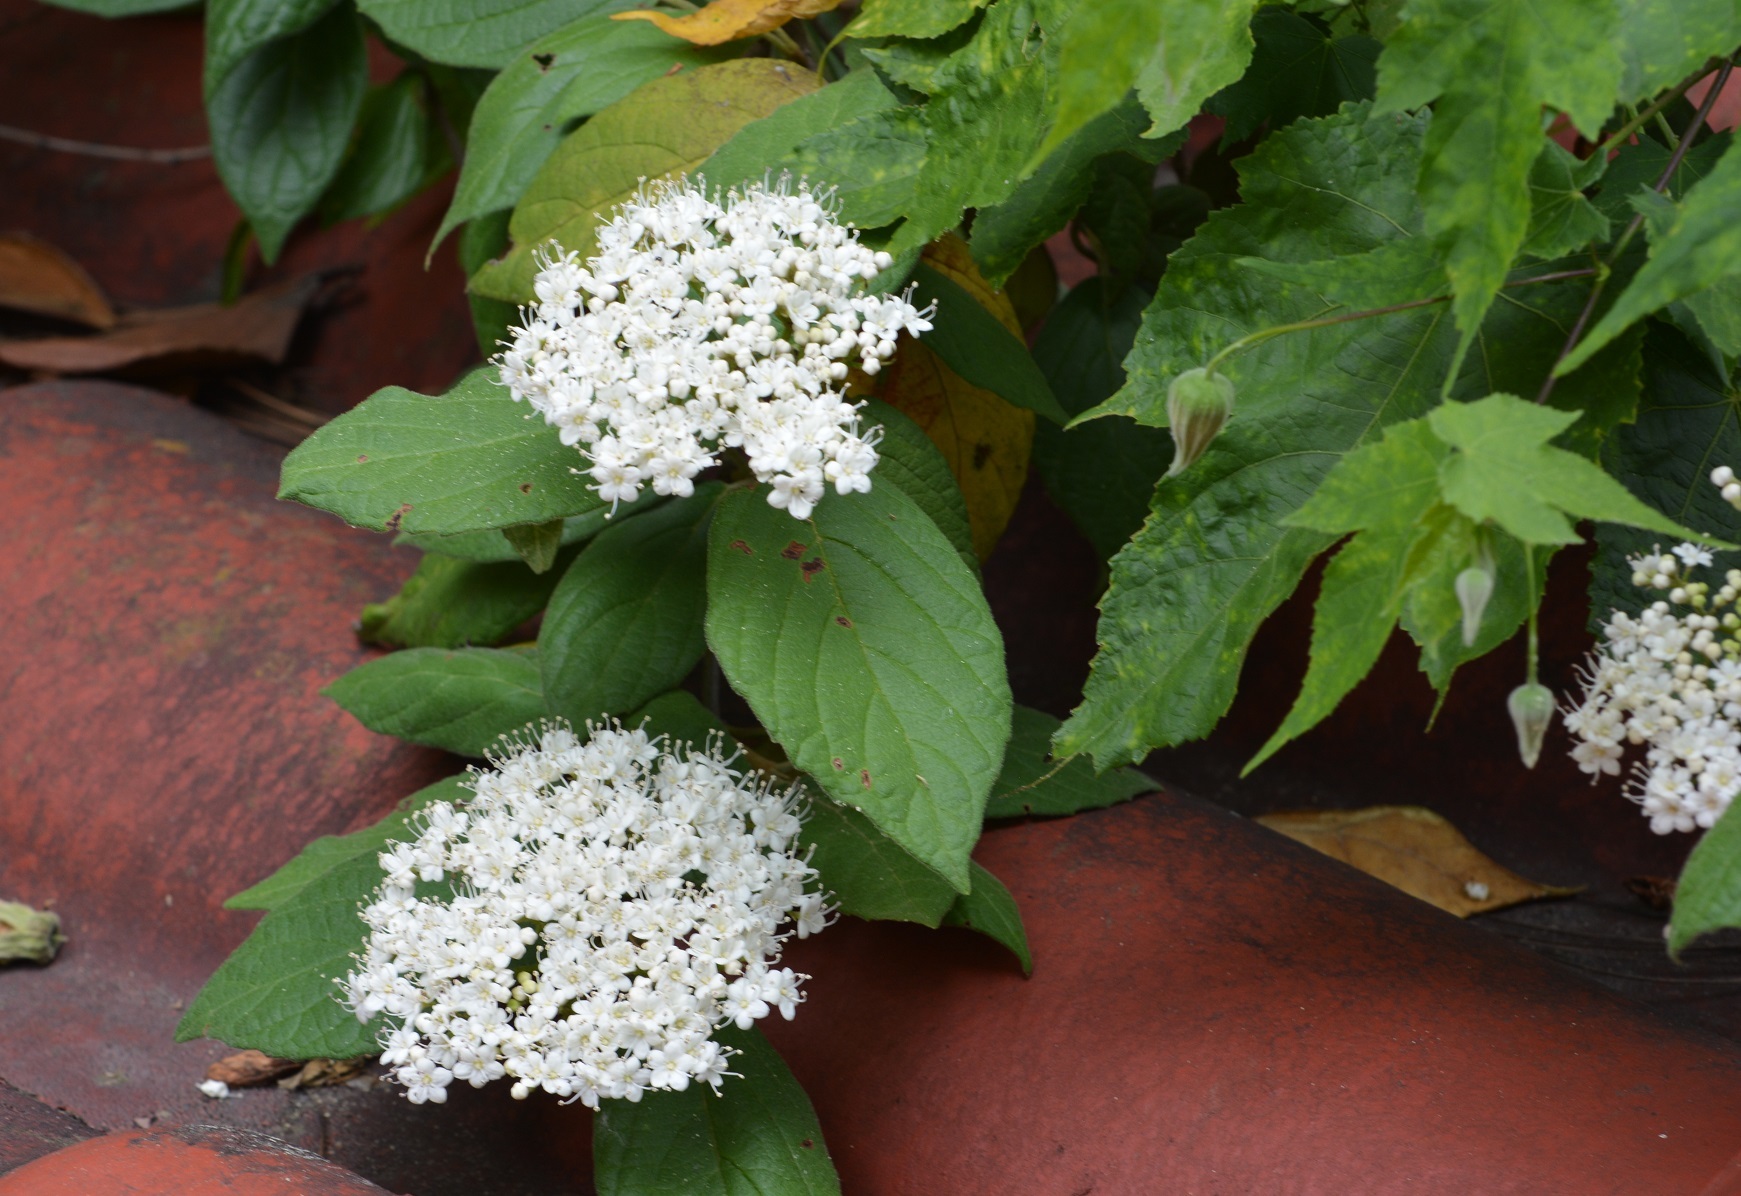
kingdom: Plantae
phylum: Tracheophyta
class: Magnoliopsida
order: Dipsacales
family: Viburnaceae
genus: Viburnum
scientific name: Viburnum jucundum
